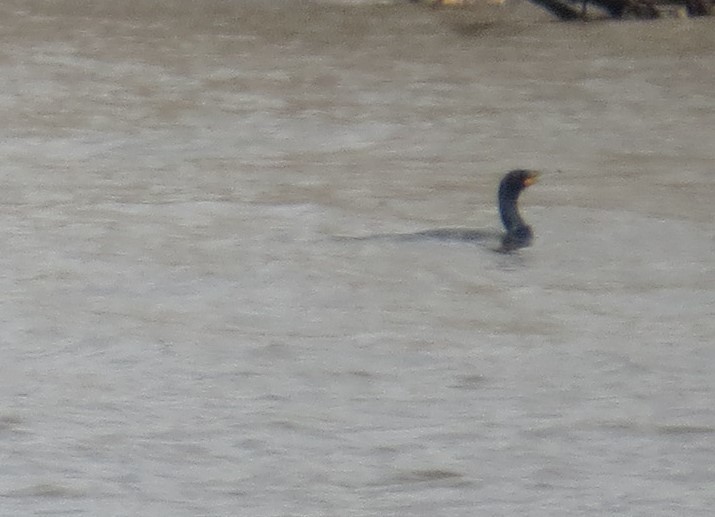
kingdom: Animalia
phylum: Chordata
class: Aves
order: Suliformes
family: Phalacrocoracidae
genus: Phalacrocorax
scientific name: Phalacrocorax auritus
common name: Double-crested cormorant
